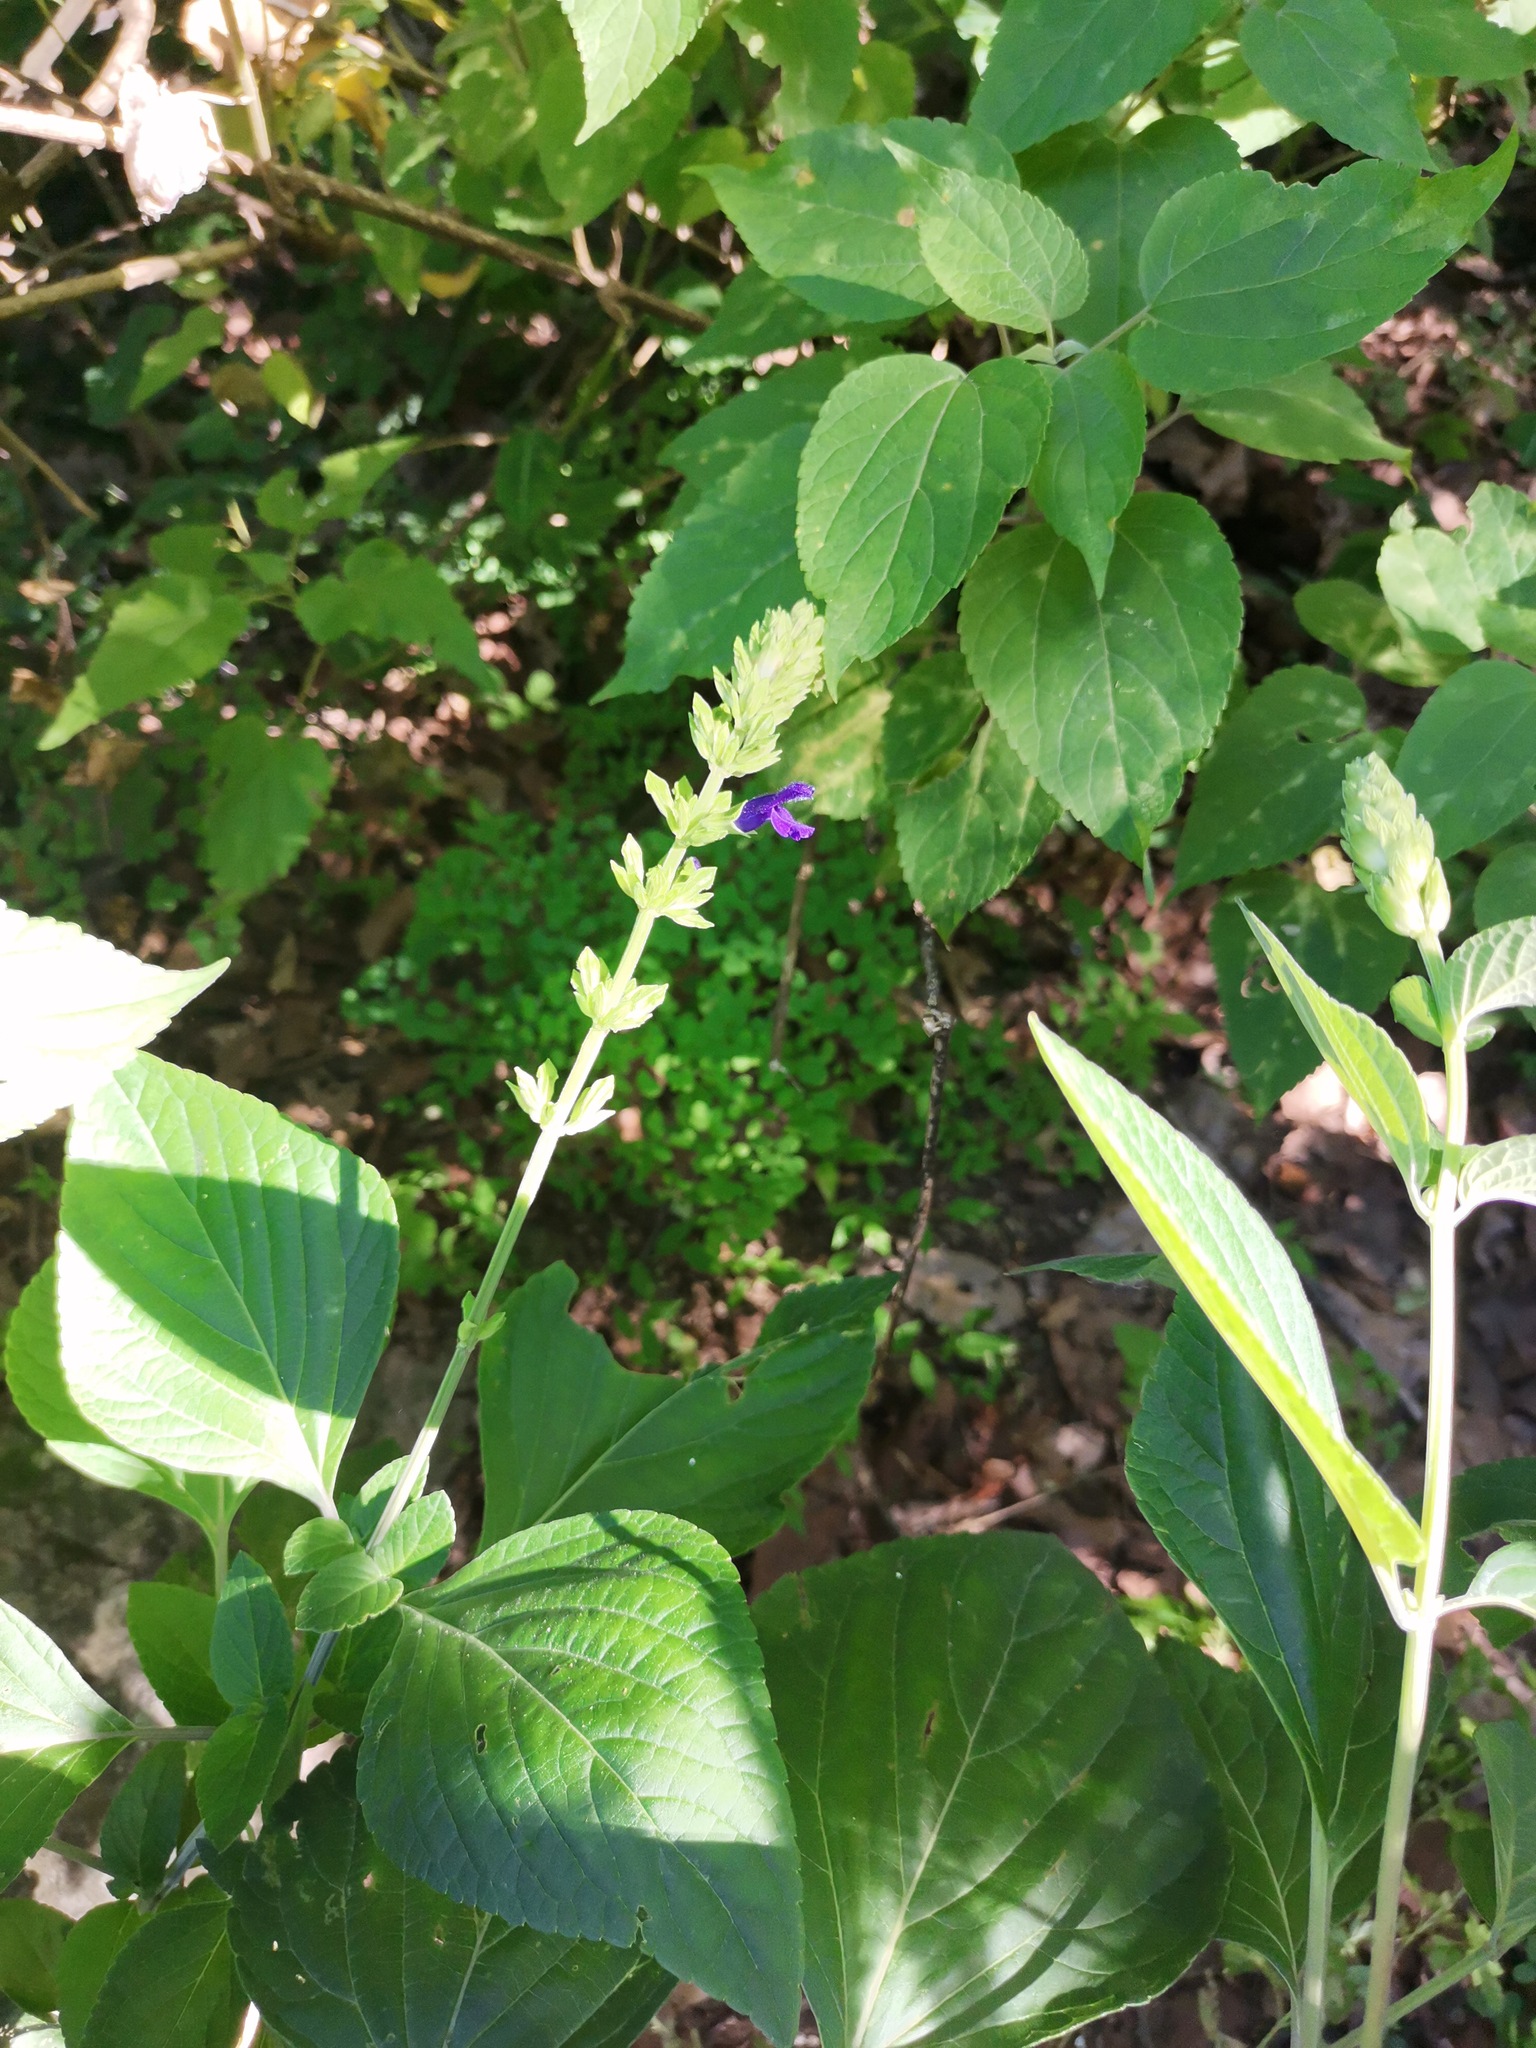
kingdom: Plantae
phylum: Tracheophyta
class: Magnoliopsida
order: Lamiales
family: Lamiaceae
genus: Salvia
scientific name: Salvia mexicana
